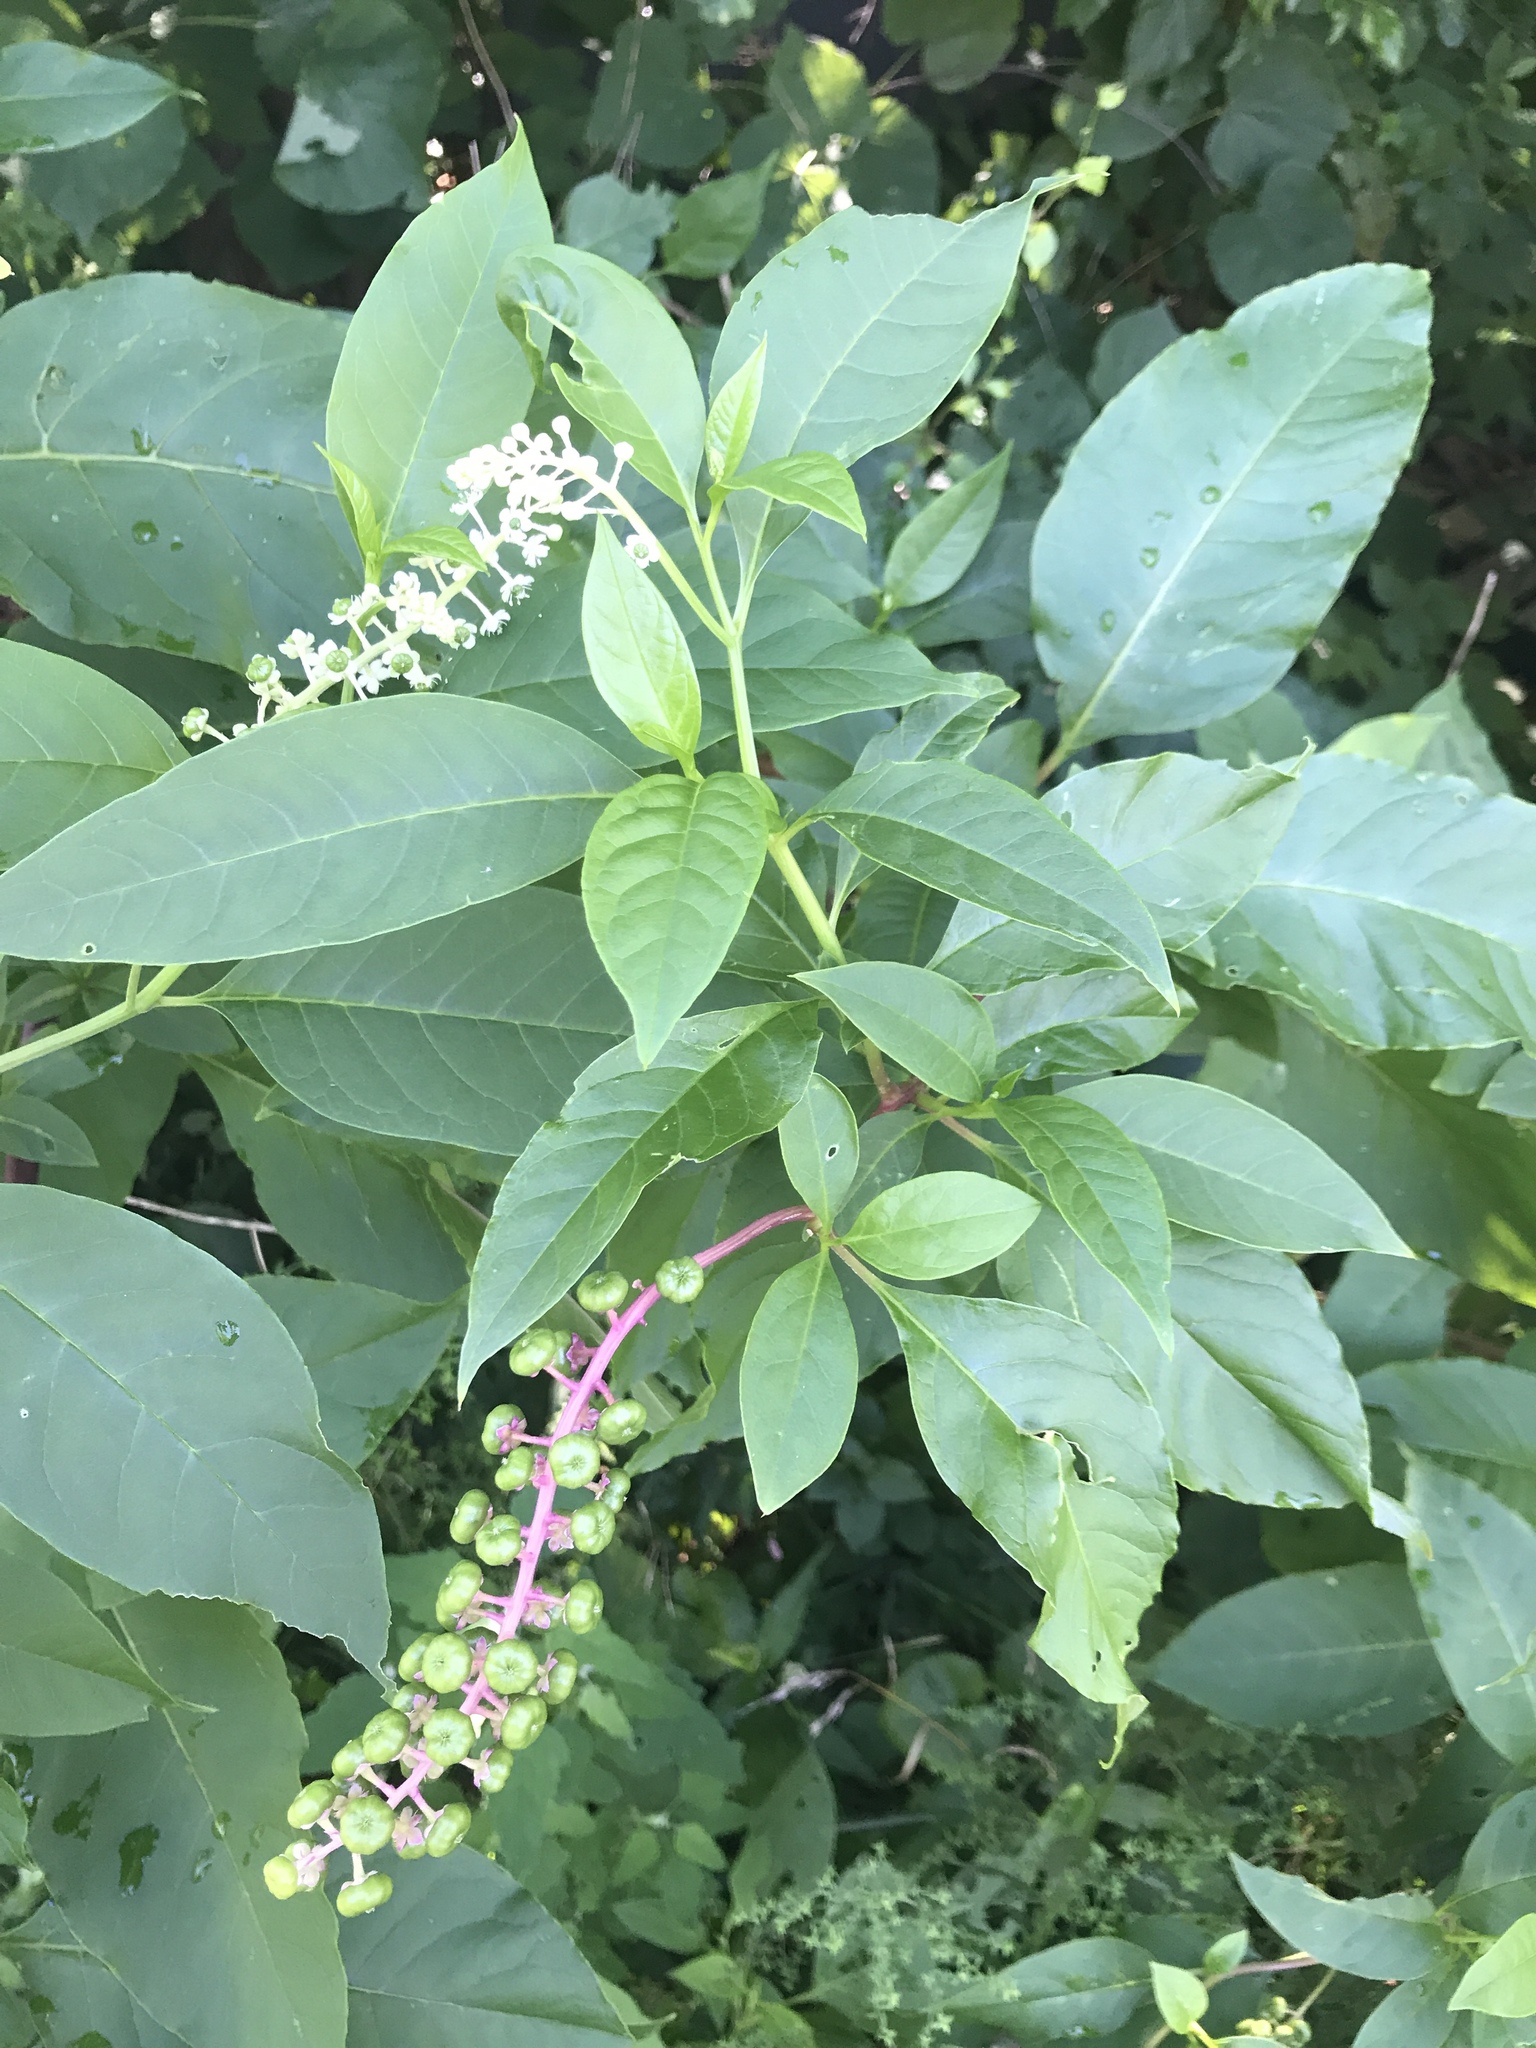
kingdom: Plantae
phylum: Tracheophyta
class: Magnoliopsida
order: Caryophyllales
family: Phytolaccaceae
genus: Phytolacca
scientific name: Phytolacca americana
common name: American pokeweed
